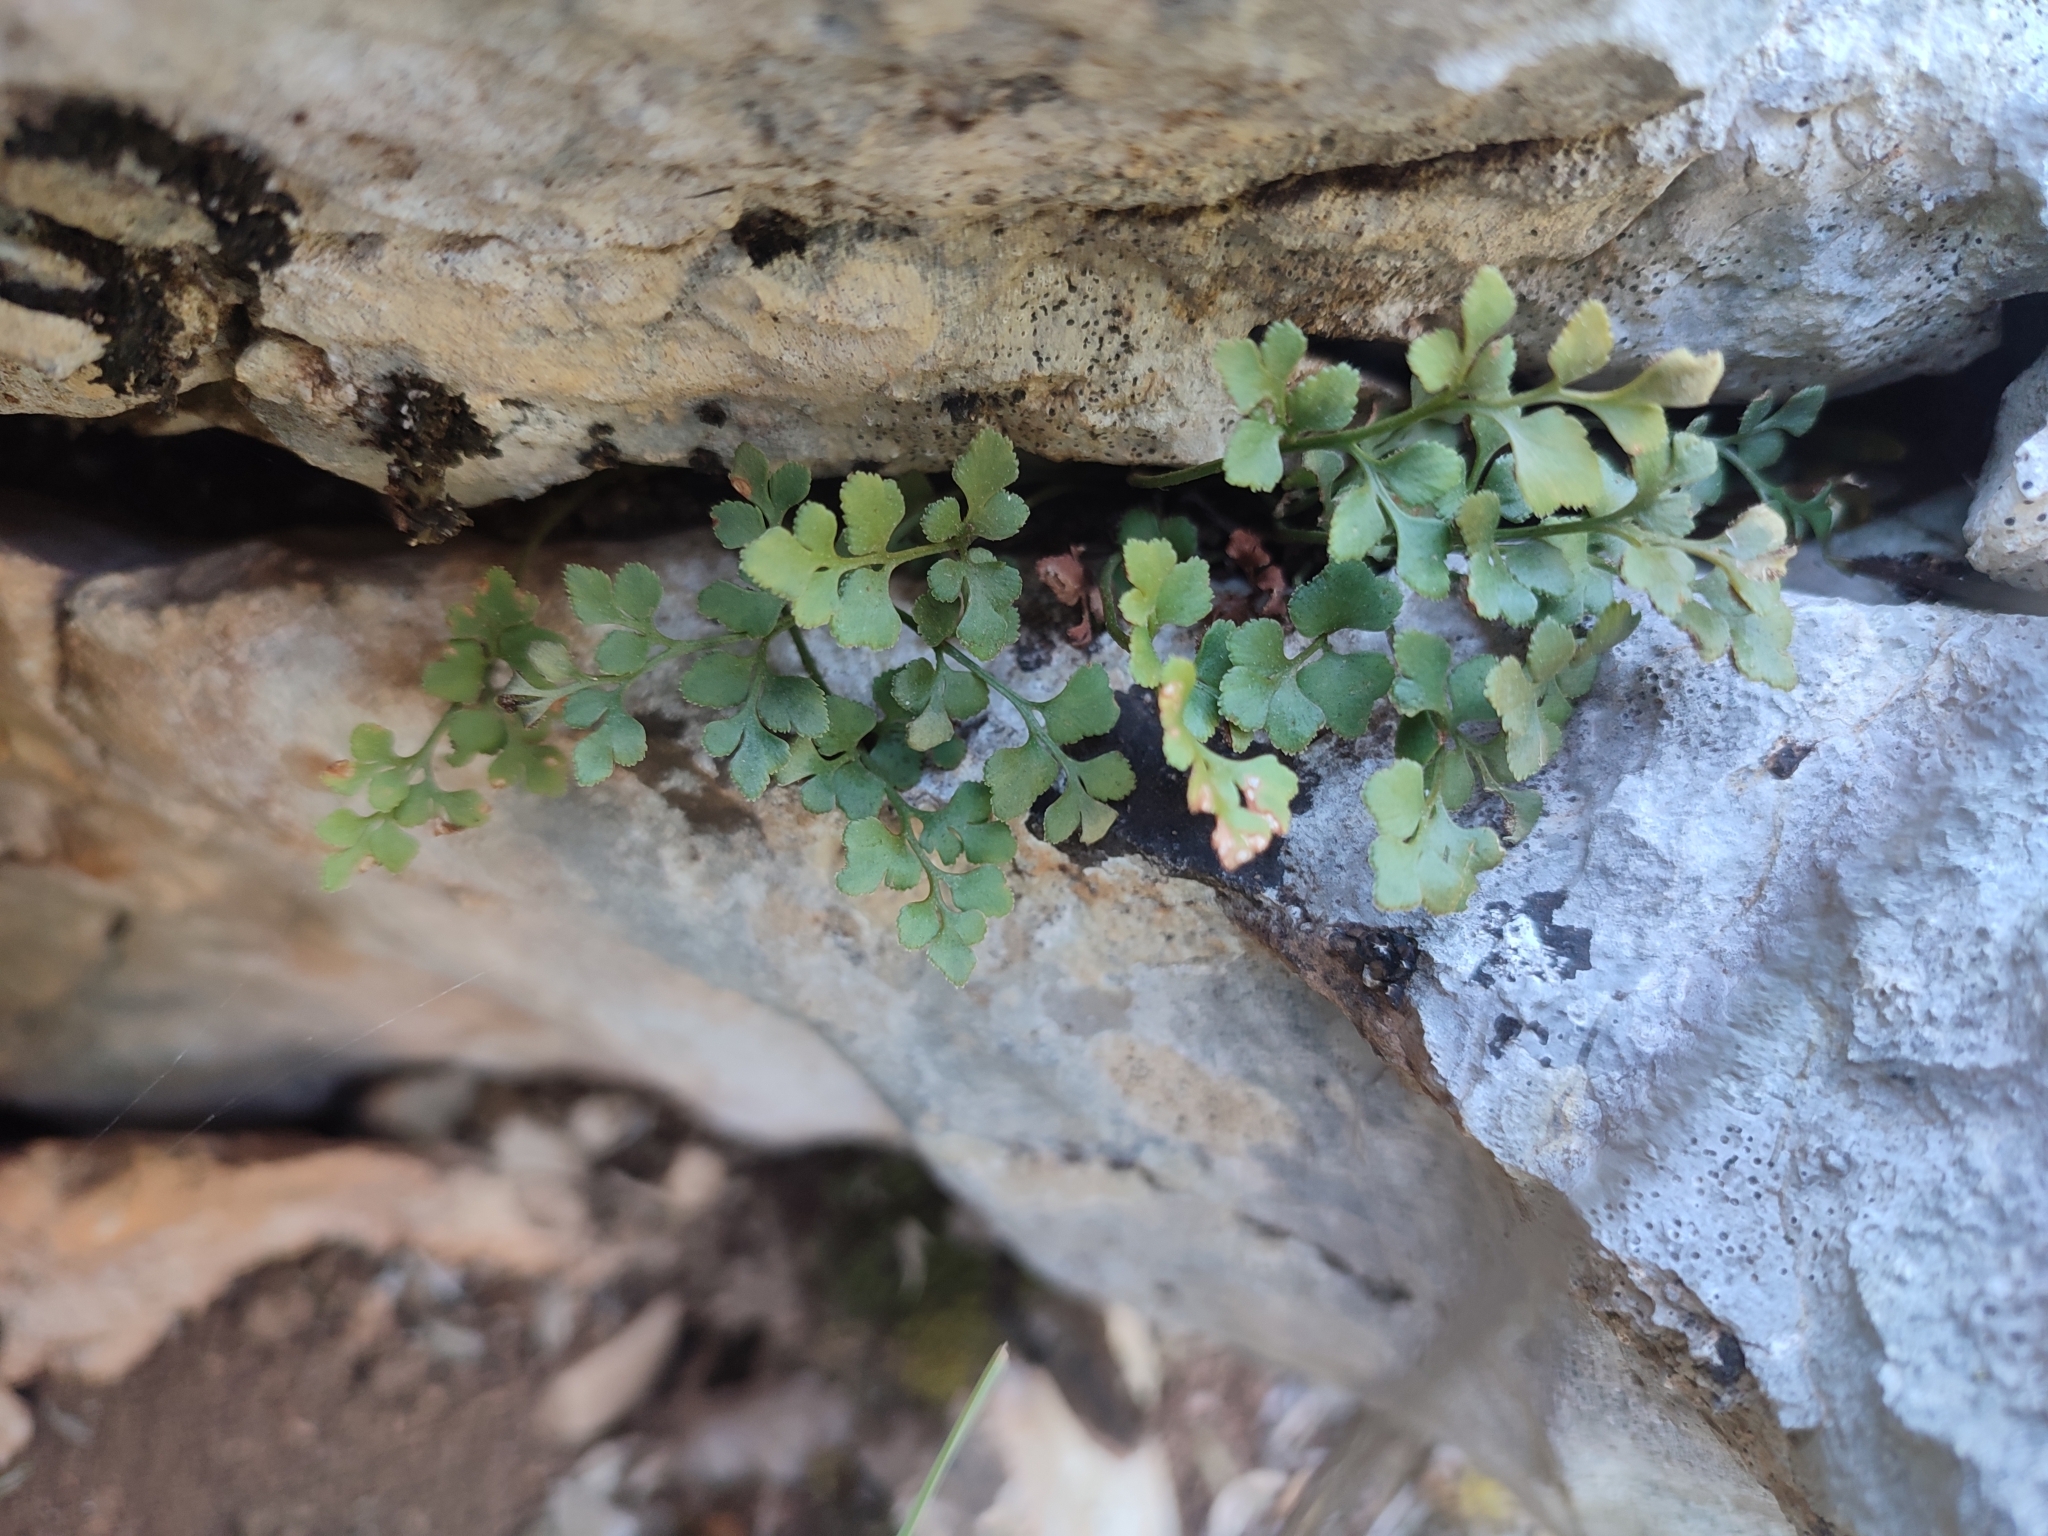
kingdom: Plantae
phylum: Tracheophyta
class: Polypodiopsida
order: Polypodiales
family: Aspleniaceae
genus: Asplenium
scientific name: Asplenium ruta-muraria
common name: Wall-rue
